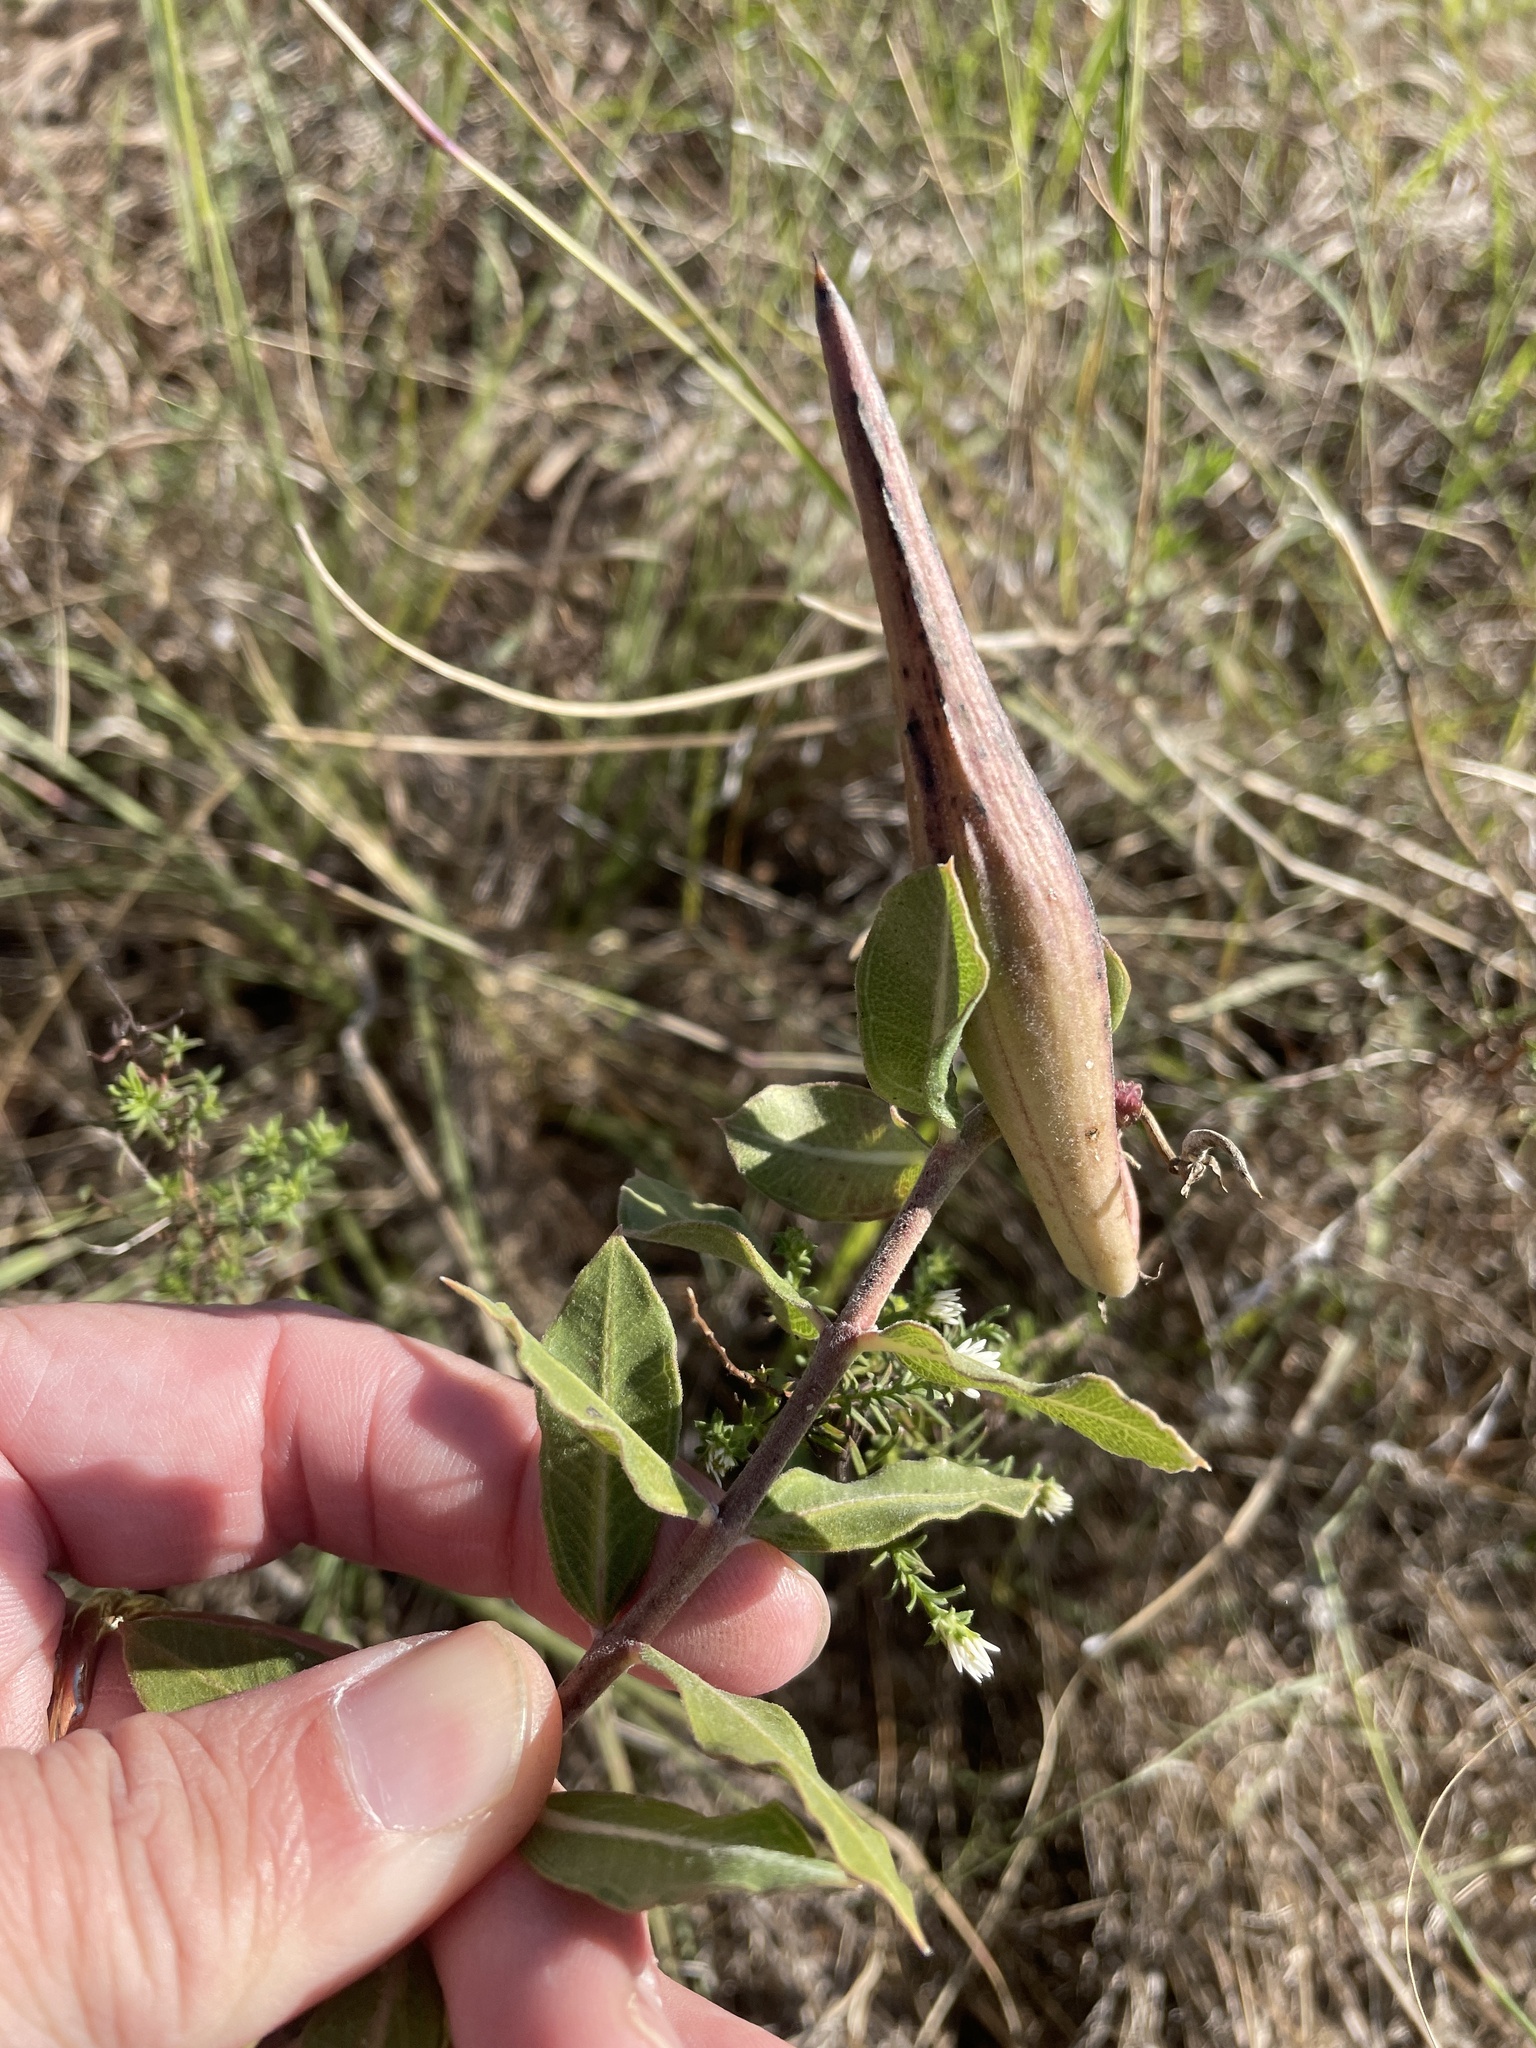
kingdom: Plantae
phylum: Tracheophyta
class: Magnoliopsida
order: Gentianales
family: Apocynaceae
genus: Asclepias
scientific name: Asclepias viridiflora
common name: Green comet milkweed
